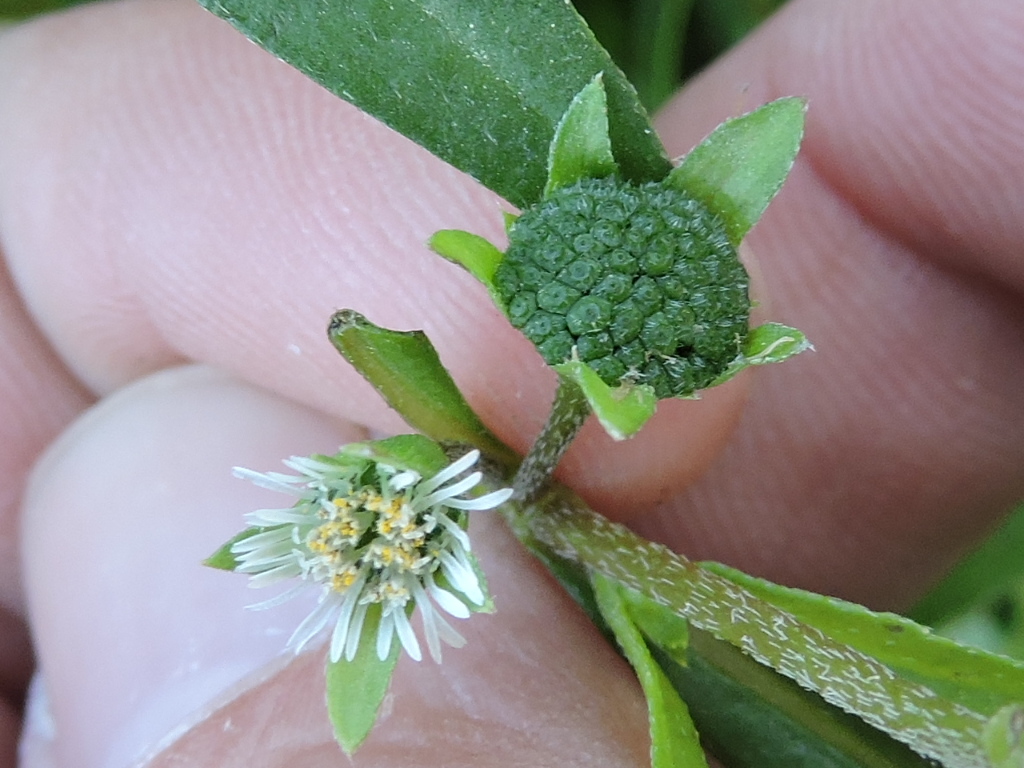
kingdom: Plantae
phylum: Tracheophyta
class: Magnoliopsida
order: Asterales
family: Asteraceae
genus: Eclipta
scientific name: Eclipta prostrata
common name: False daisy
